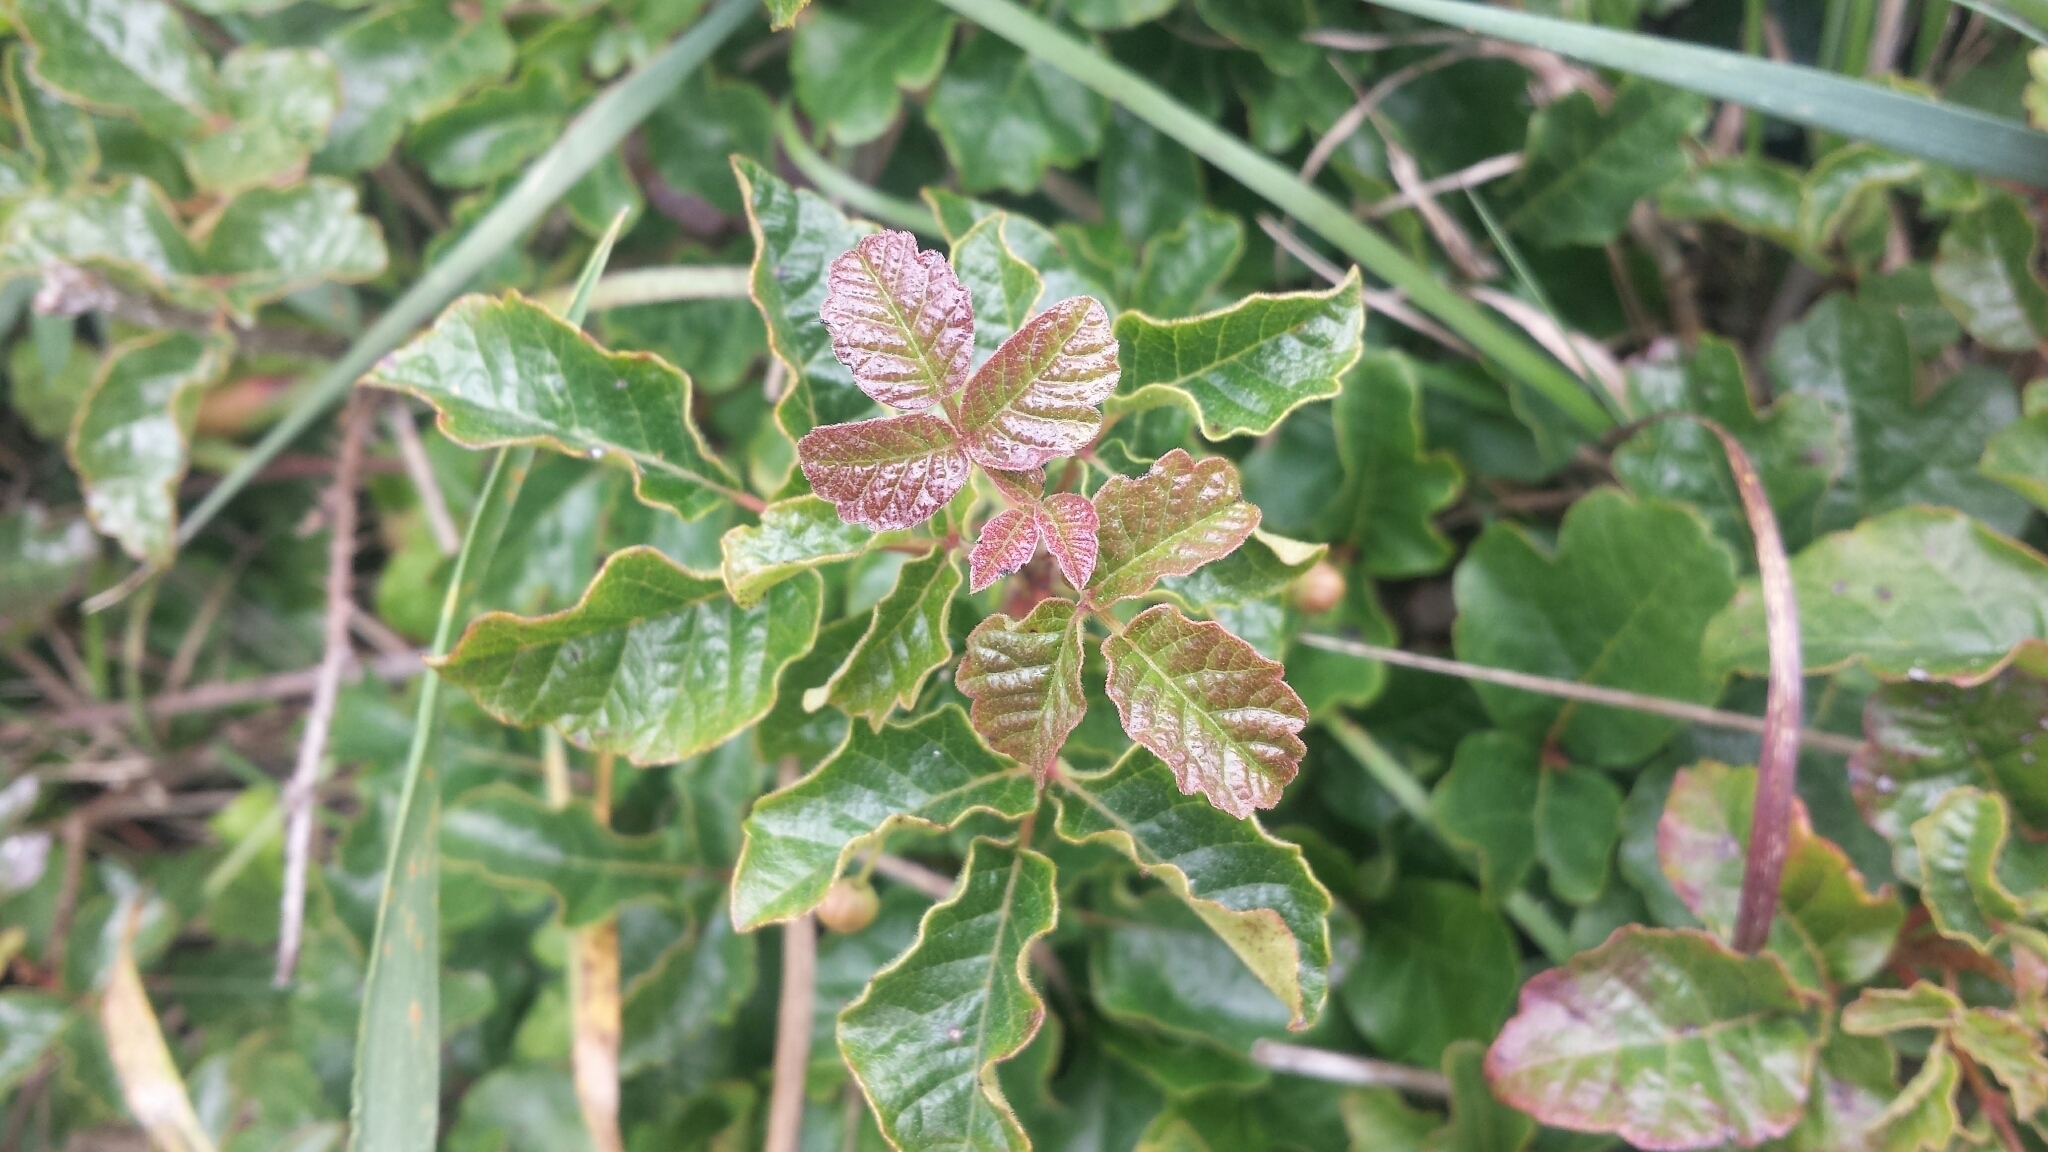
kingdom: Plantae
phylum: Tracheophyta
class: Magnoliopsida
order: Sapindales
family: Anacardiaceae
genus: Toxicodendron
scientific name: Toxicodendron diversilobum
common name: Pacific poison-oak
